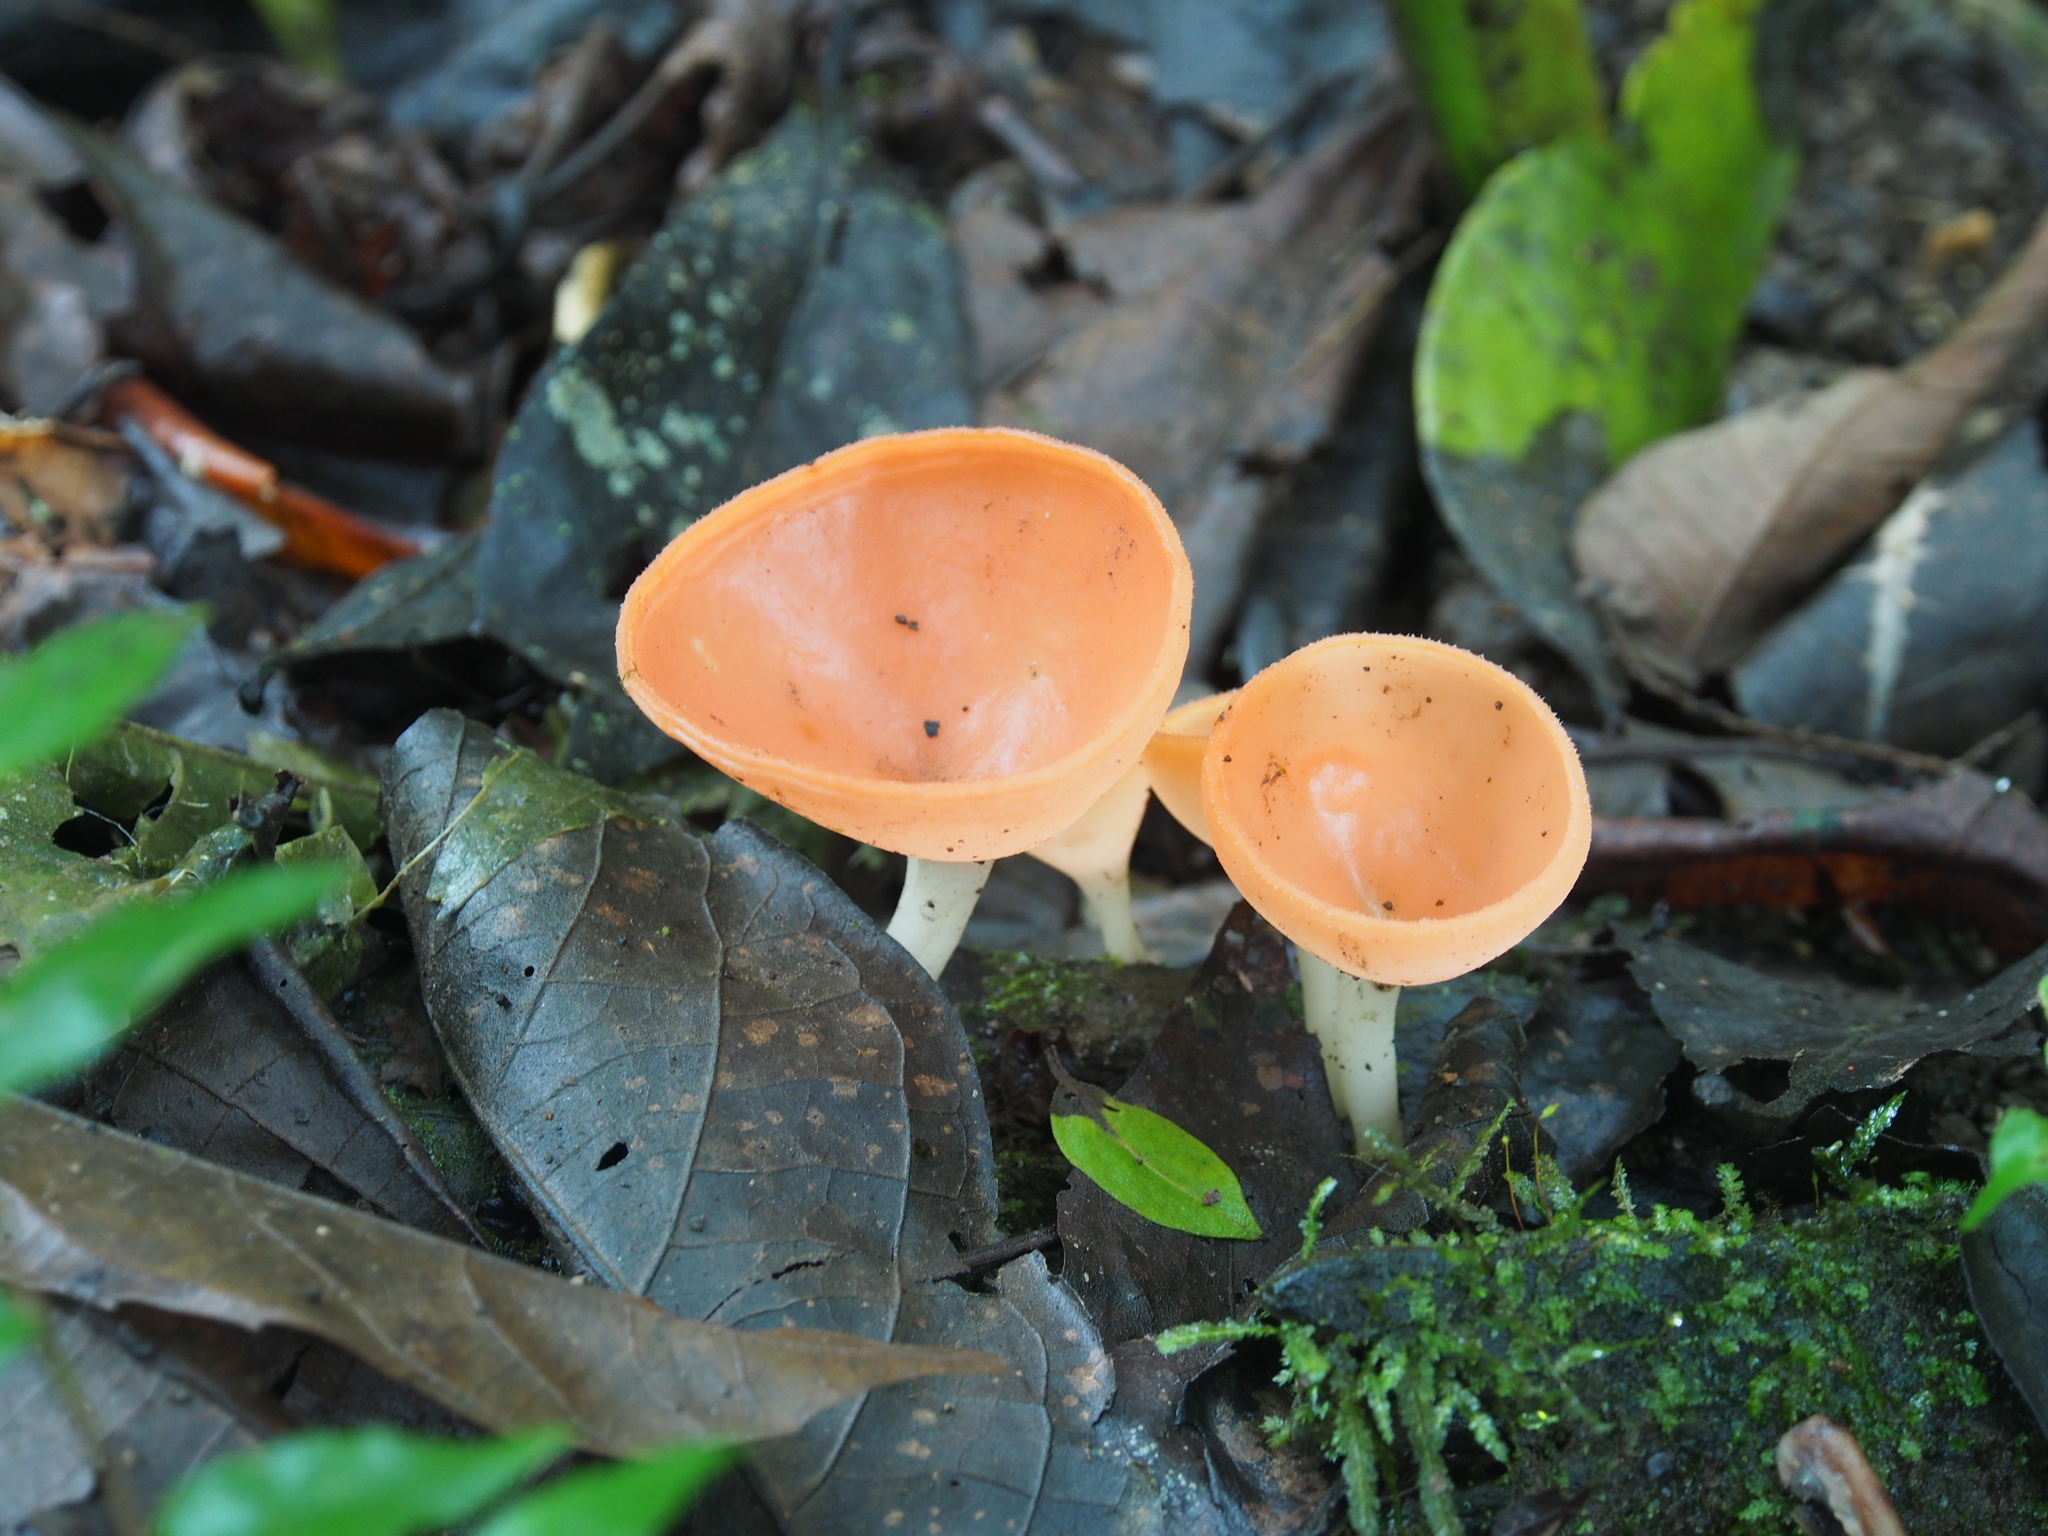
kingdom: Fungi
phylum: Ascomycota
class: Pezizomycetes
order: Pezizales
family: Sarcoscyphaceae
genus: Cookeina
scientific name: Cookeina speciosa
